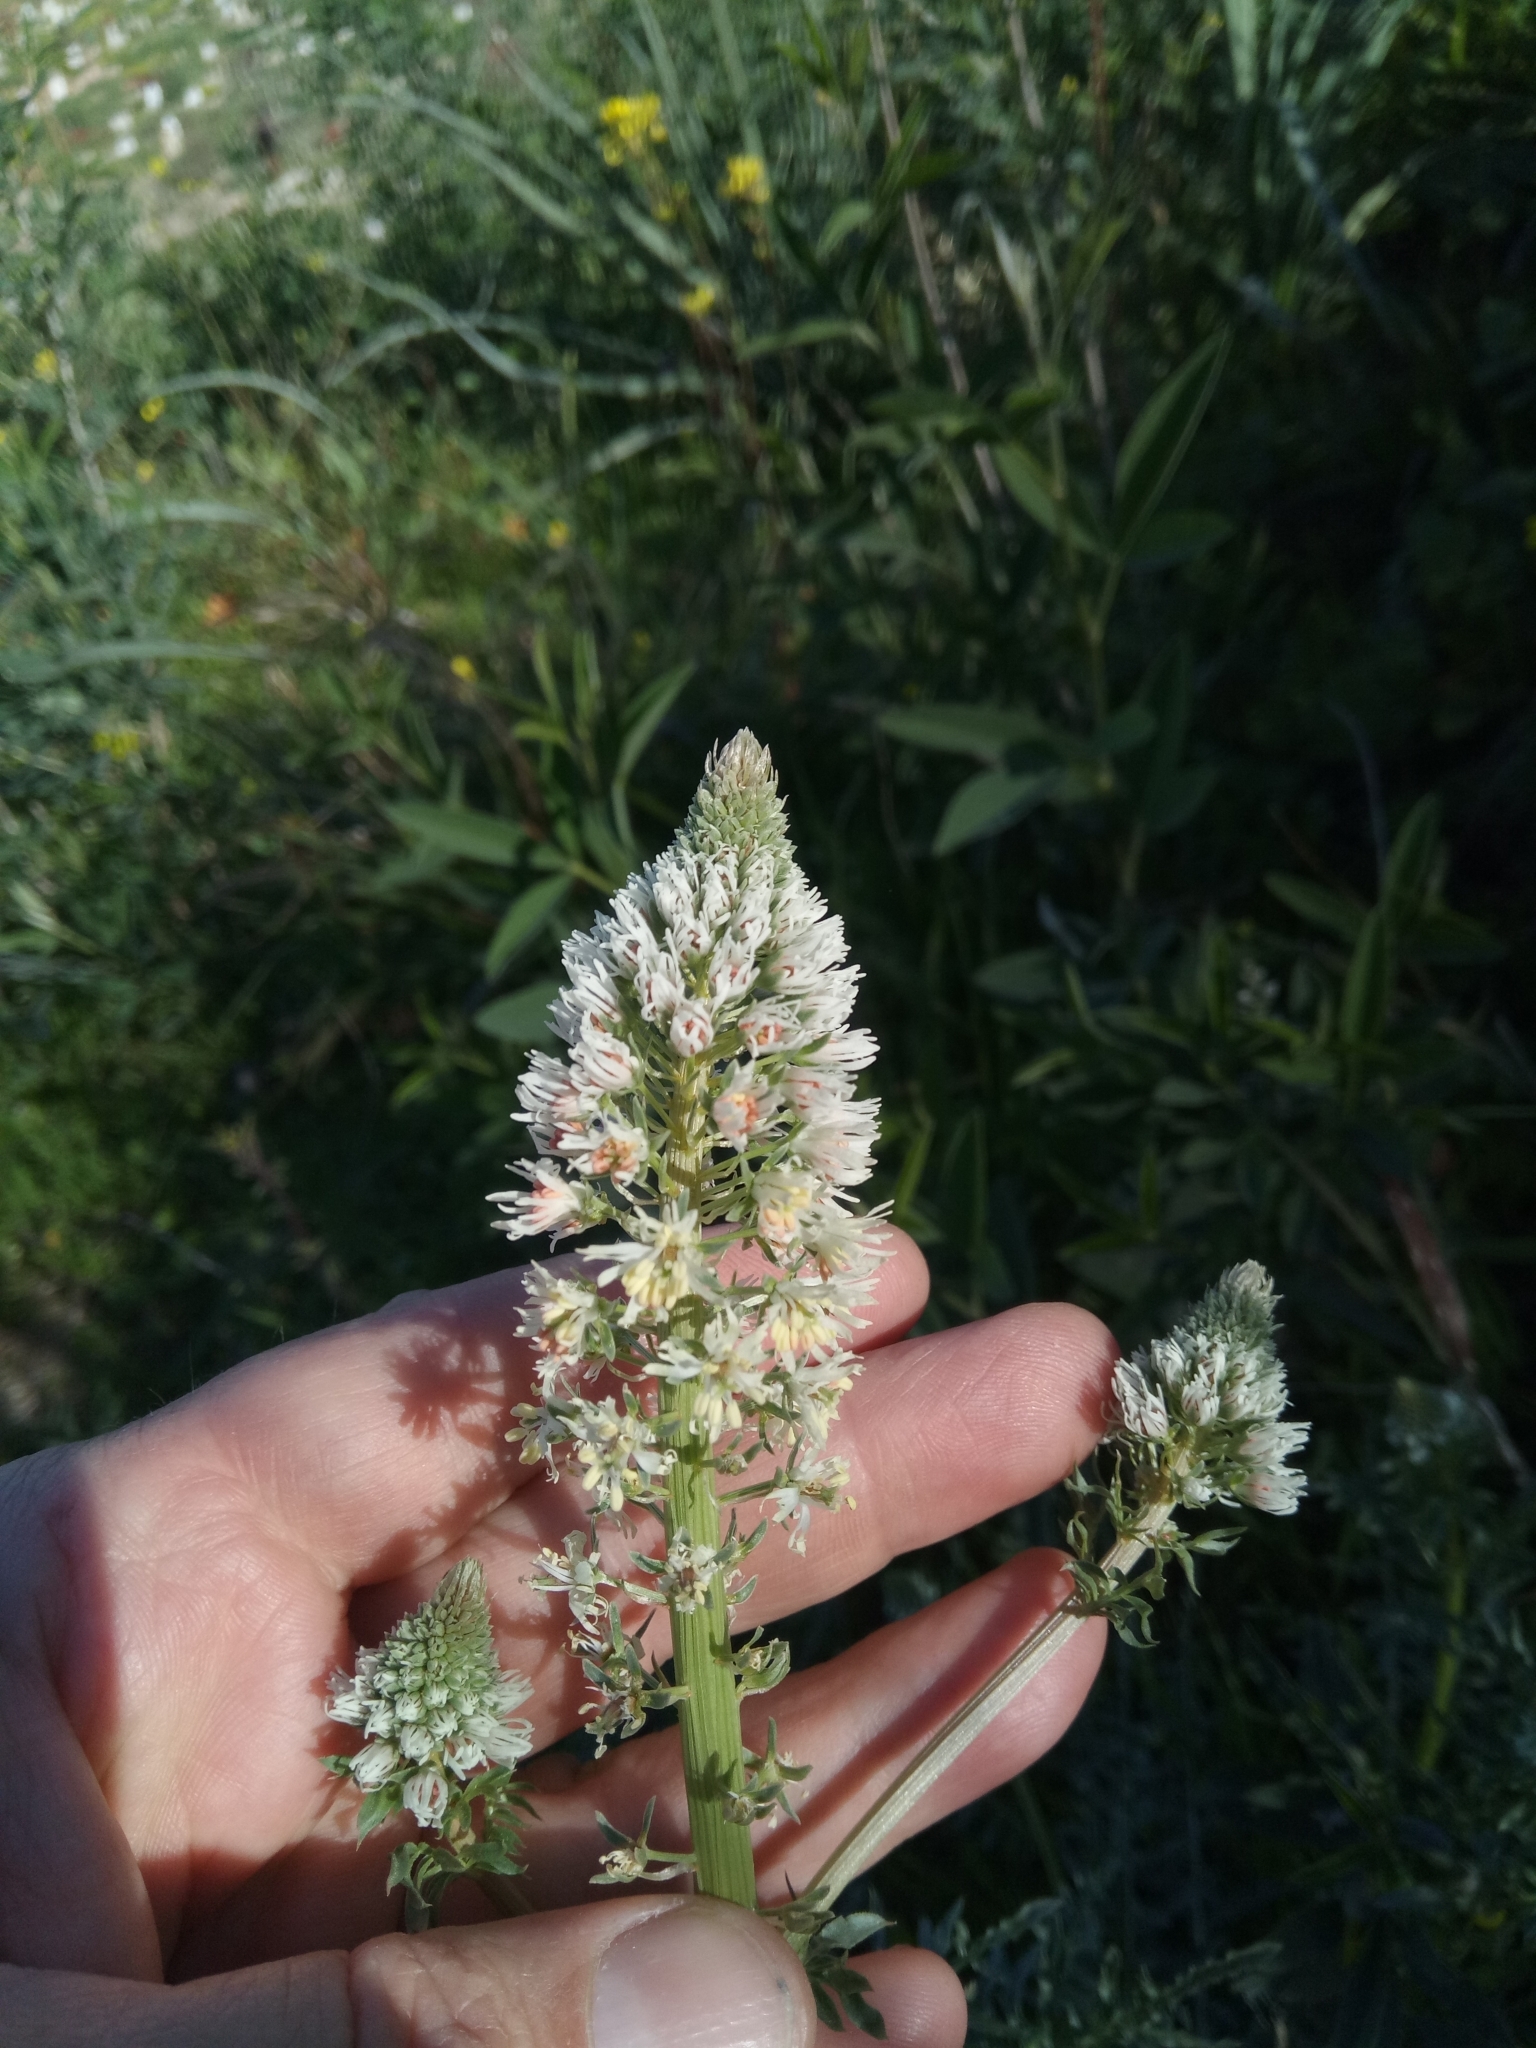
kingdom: Plantae
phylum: Tracheophyta
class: Magnoliopsida
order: Brassicales
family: Resedaceae
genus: Reseda
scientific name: Reseda alba
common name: White mignonette
